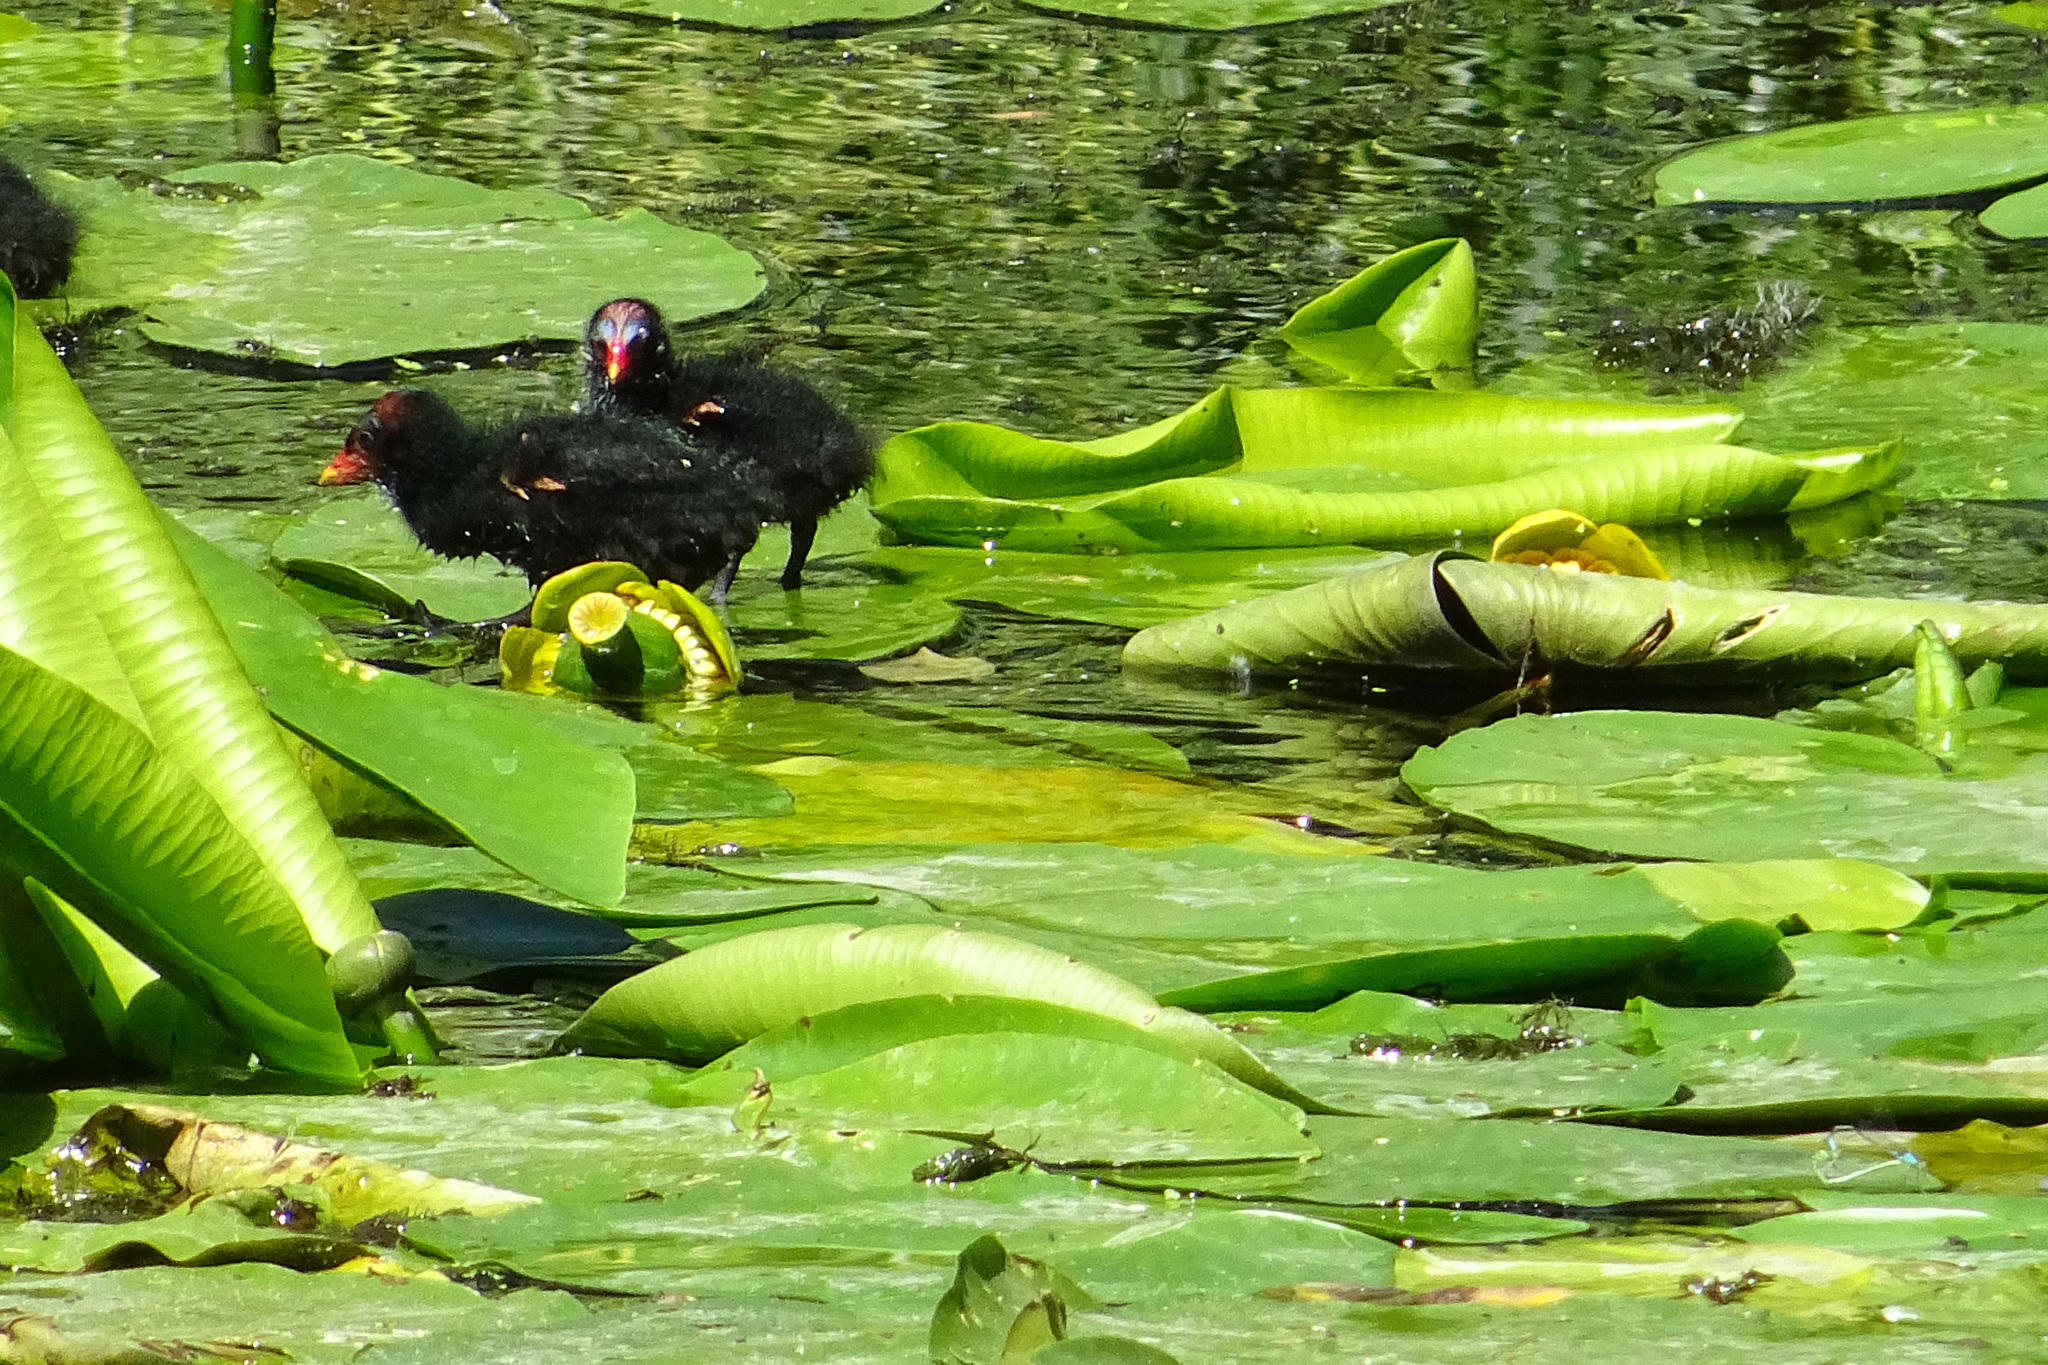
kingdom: Animalia
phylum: Chordata
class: Aves
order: Gruiformes
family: Rallidae
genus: Gallinula
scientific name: Gallinula chloropus
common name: Common moorhen
